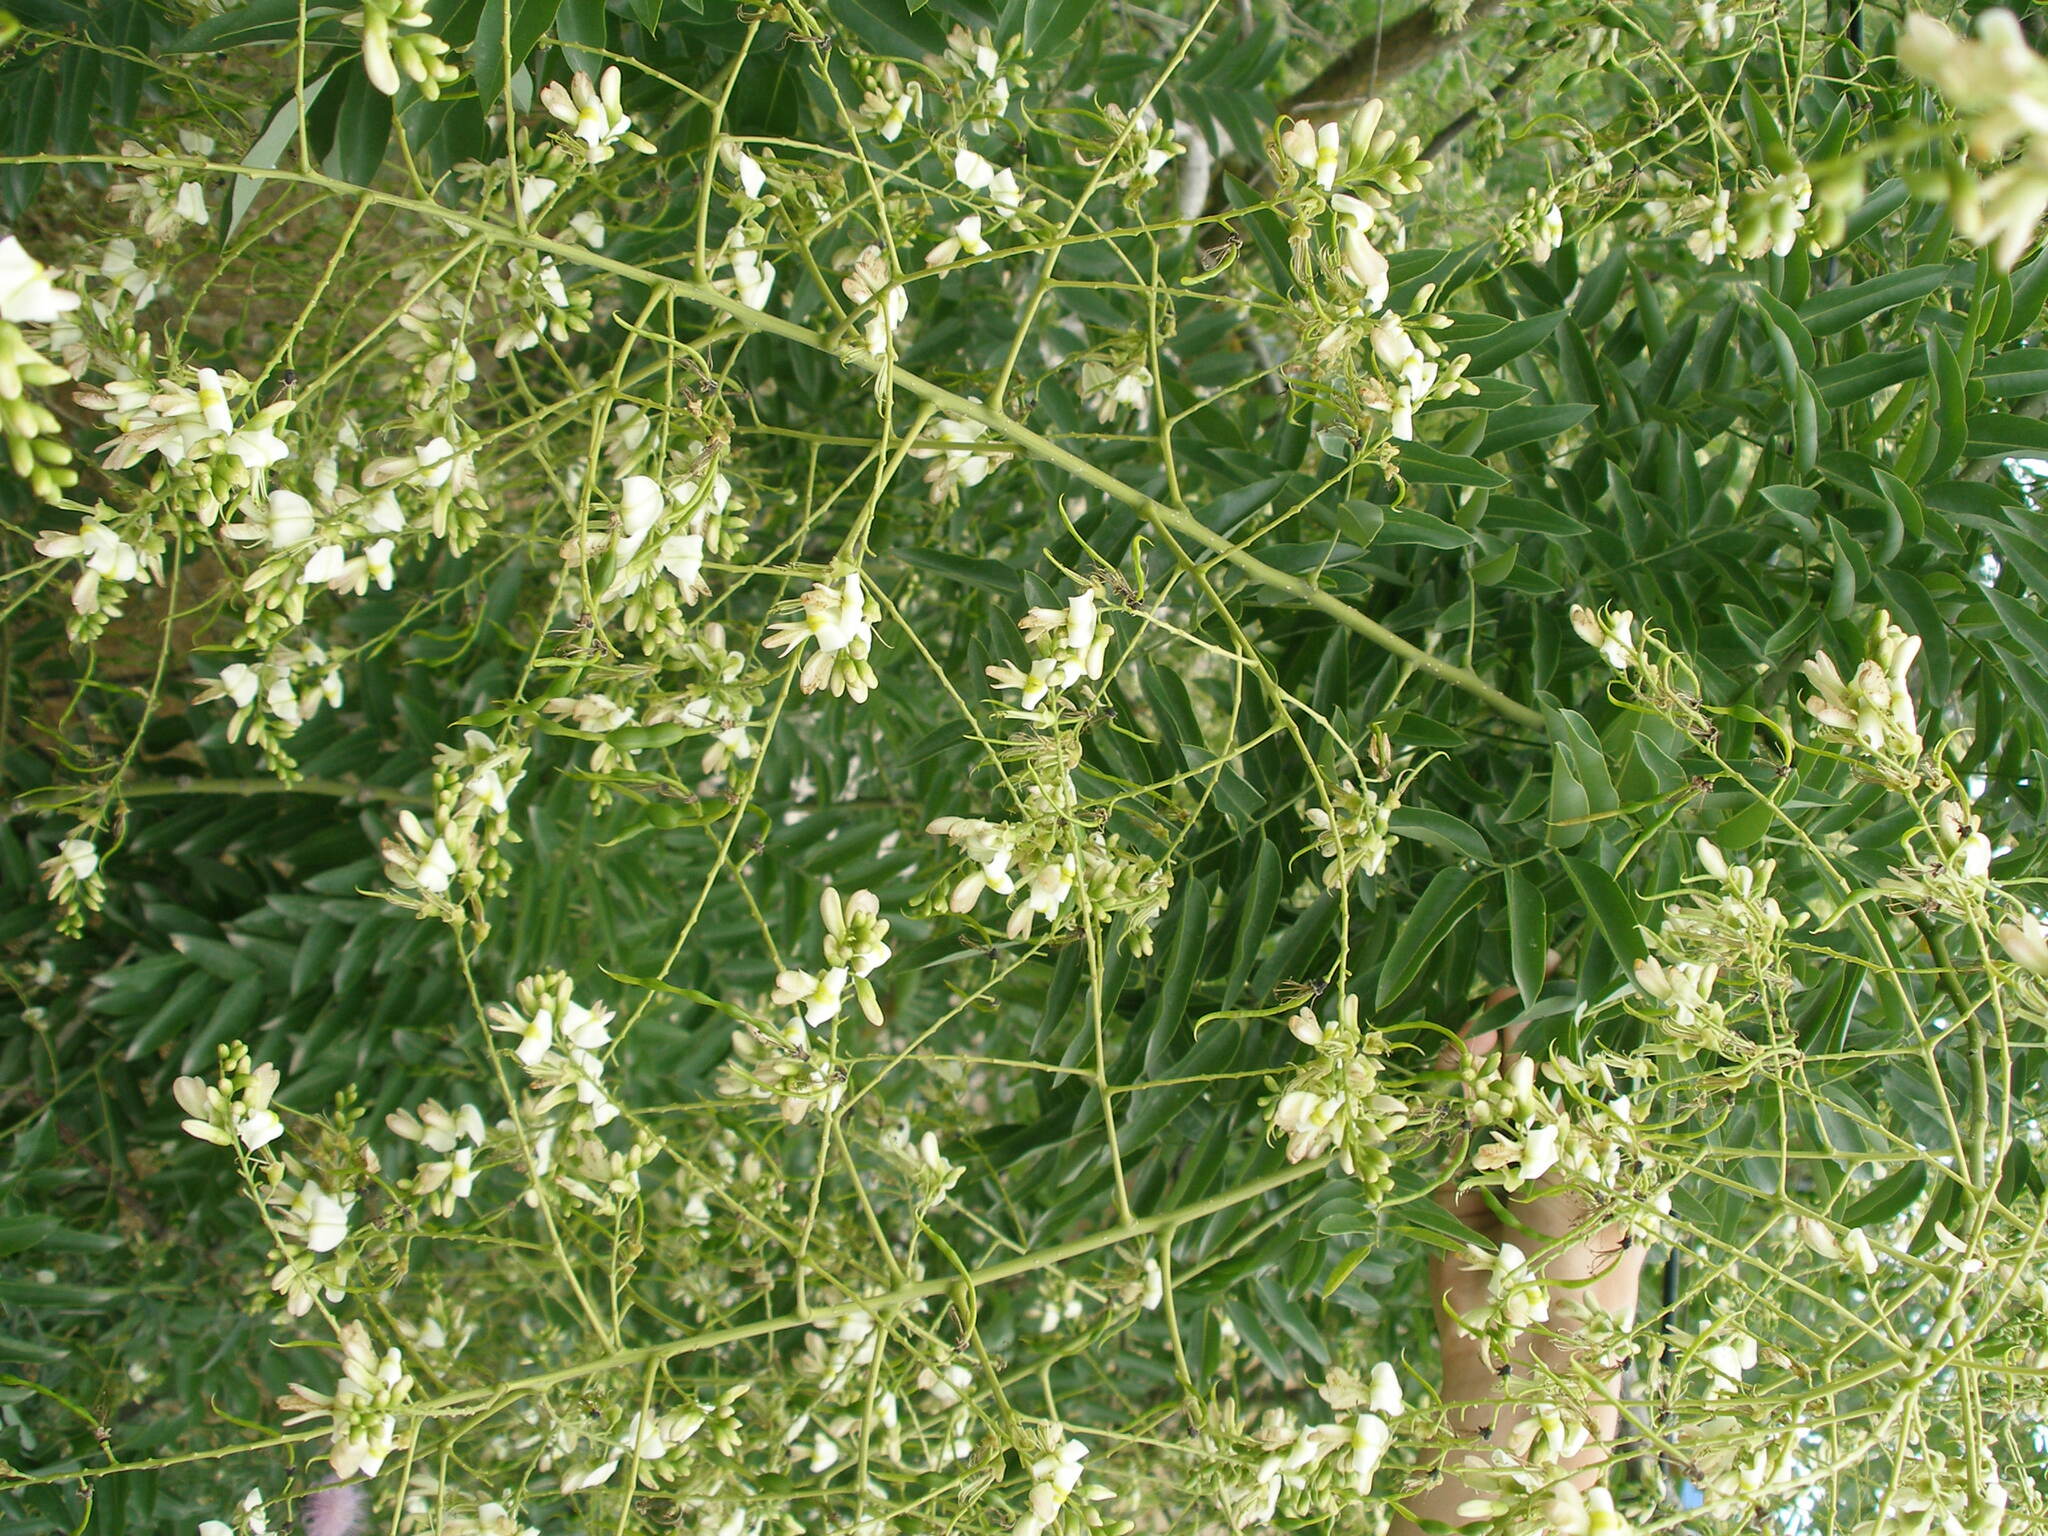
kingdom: Plantae
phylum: Tracheophyta
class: Magnoliopsida
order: Fabales
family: Fabaceae
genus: Styphnolobium
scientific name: Styphnolobium japonicum
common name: Chinese scholartree
